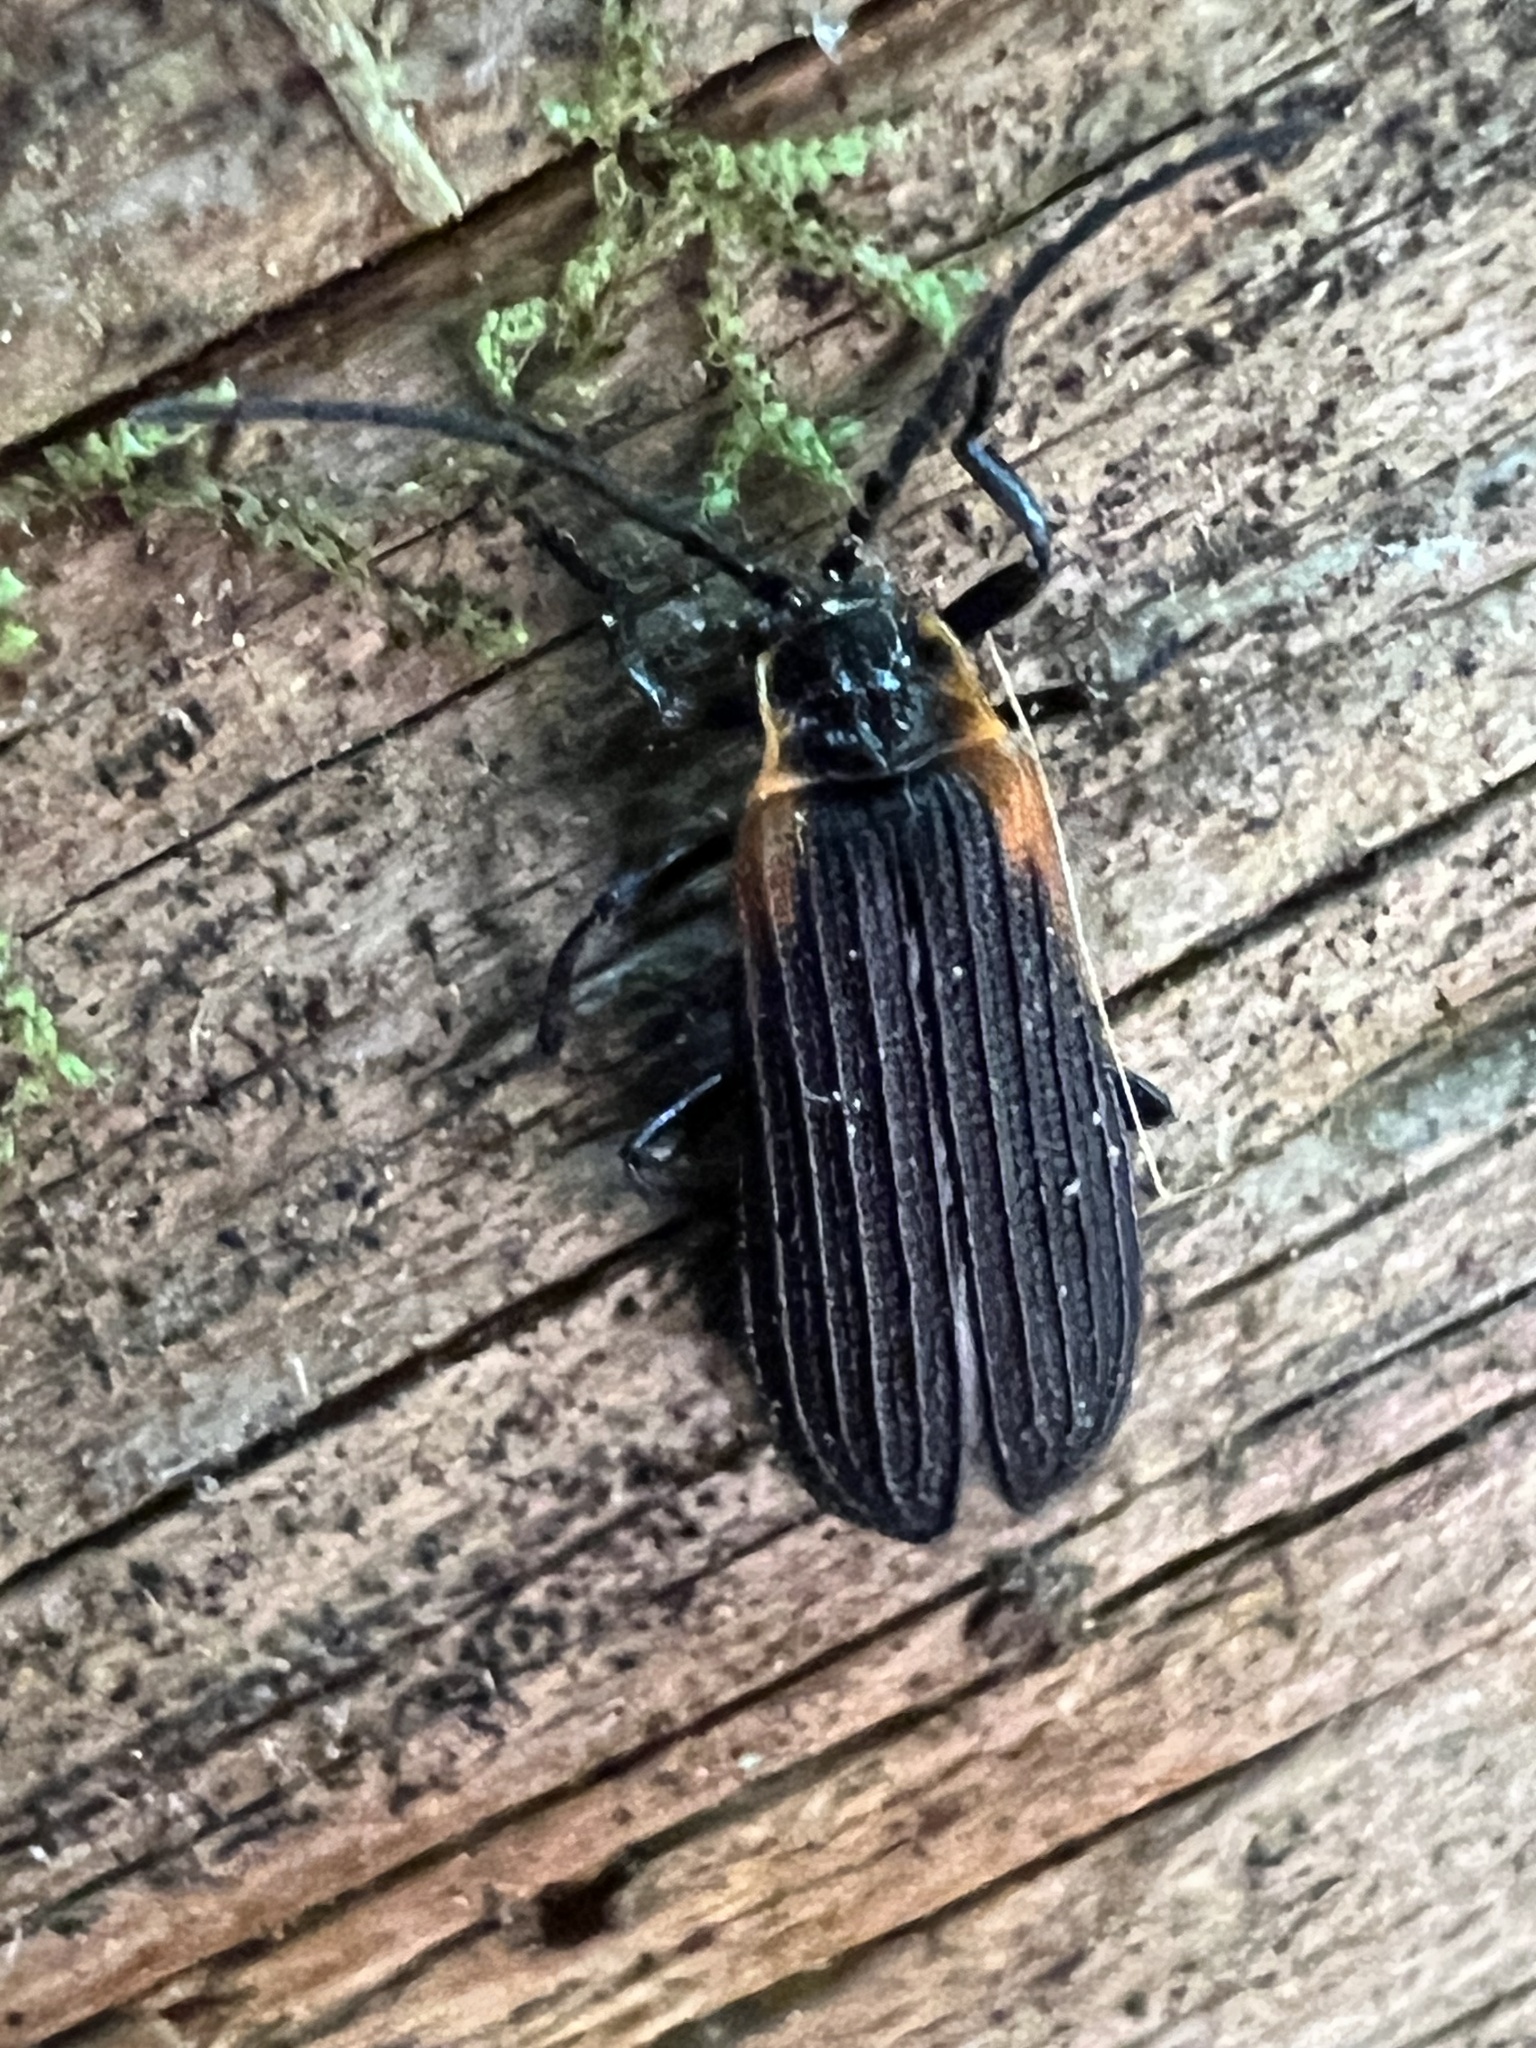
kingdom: Animalia
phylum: Arthropoda
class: Insecta
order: Coleoptera
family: Lycidae
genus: Eros
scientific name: Eros humeralis
